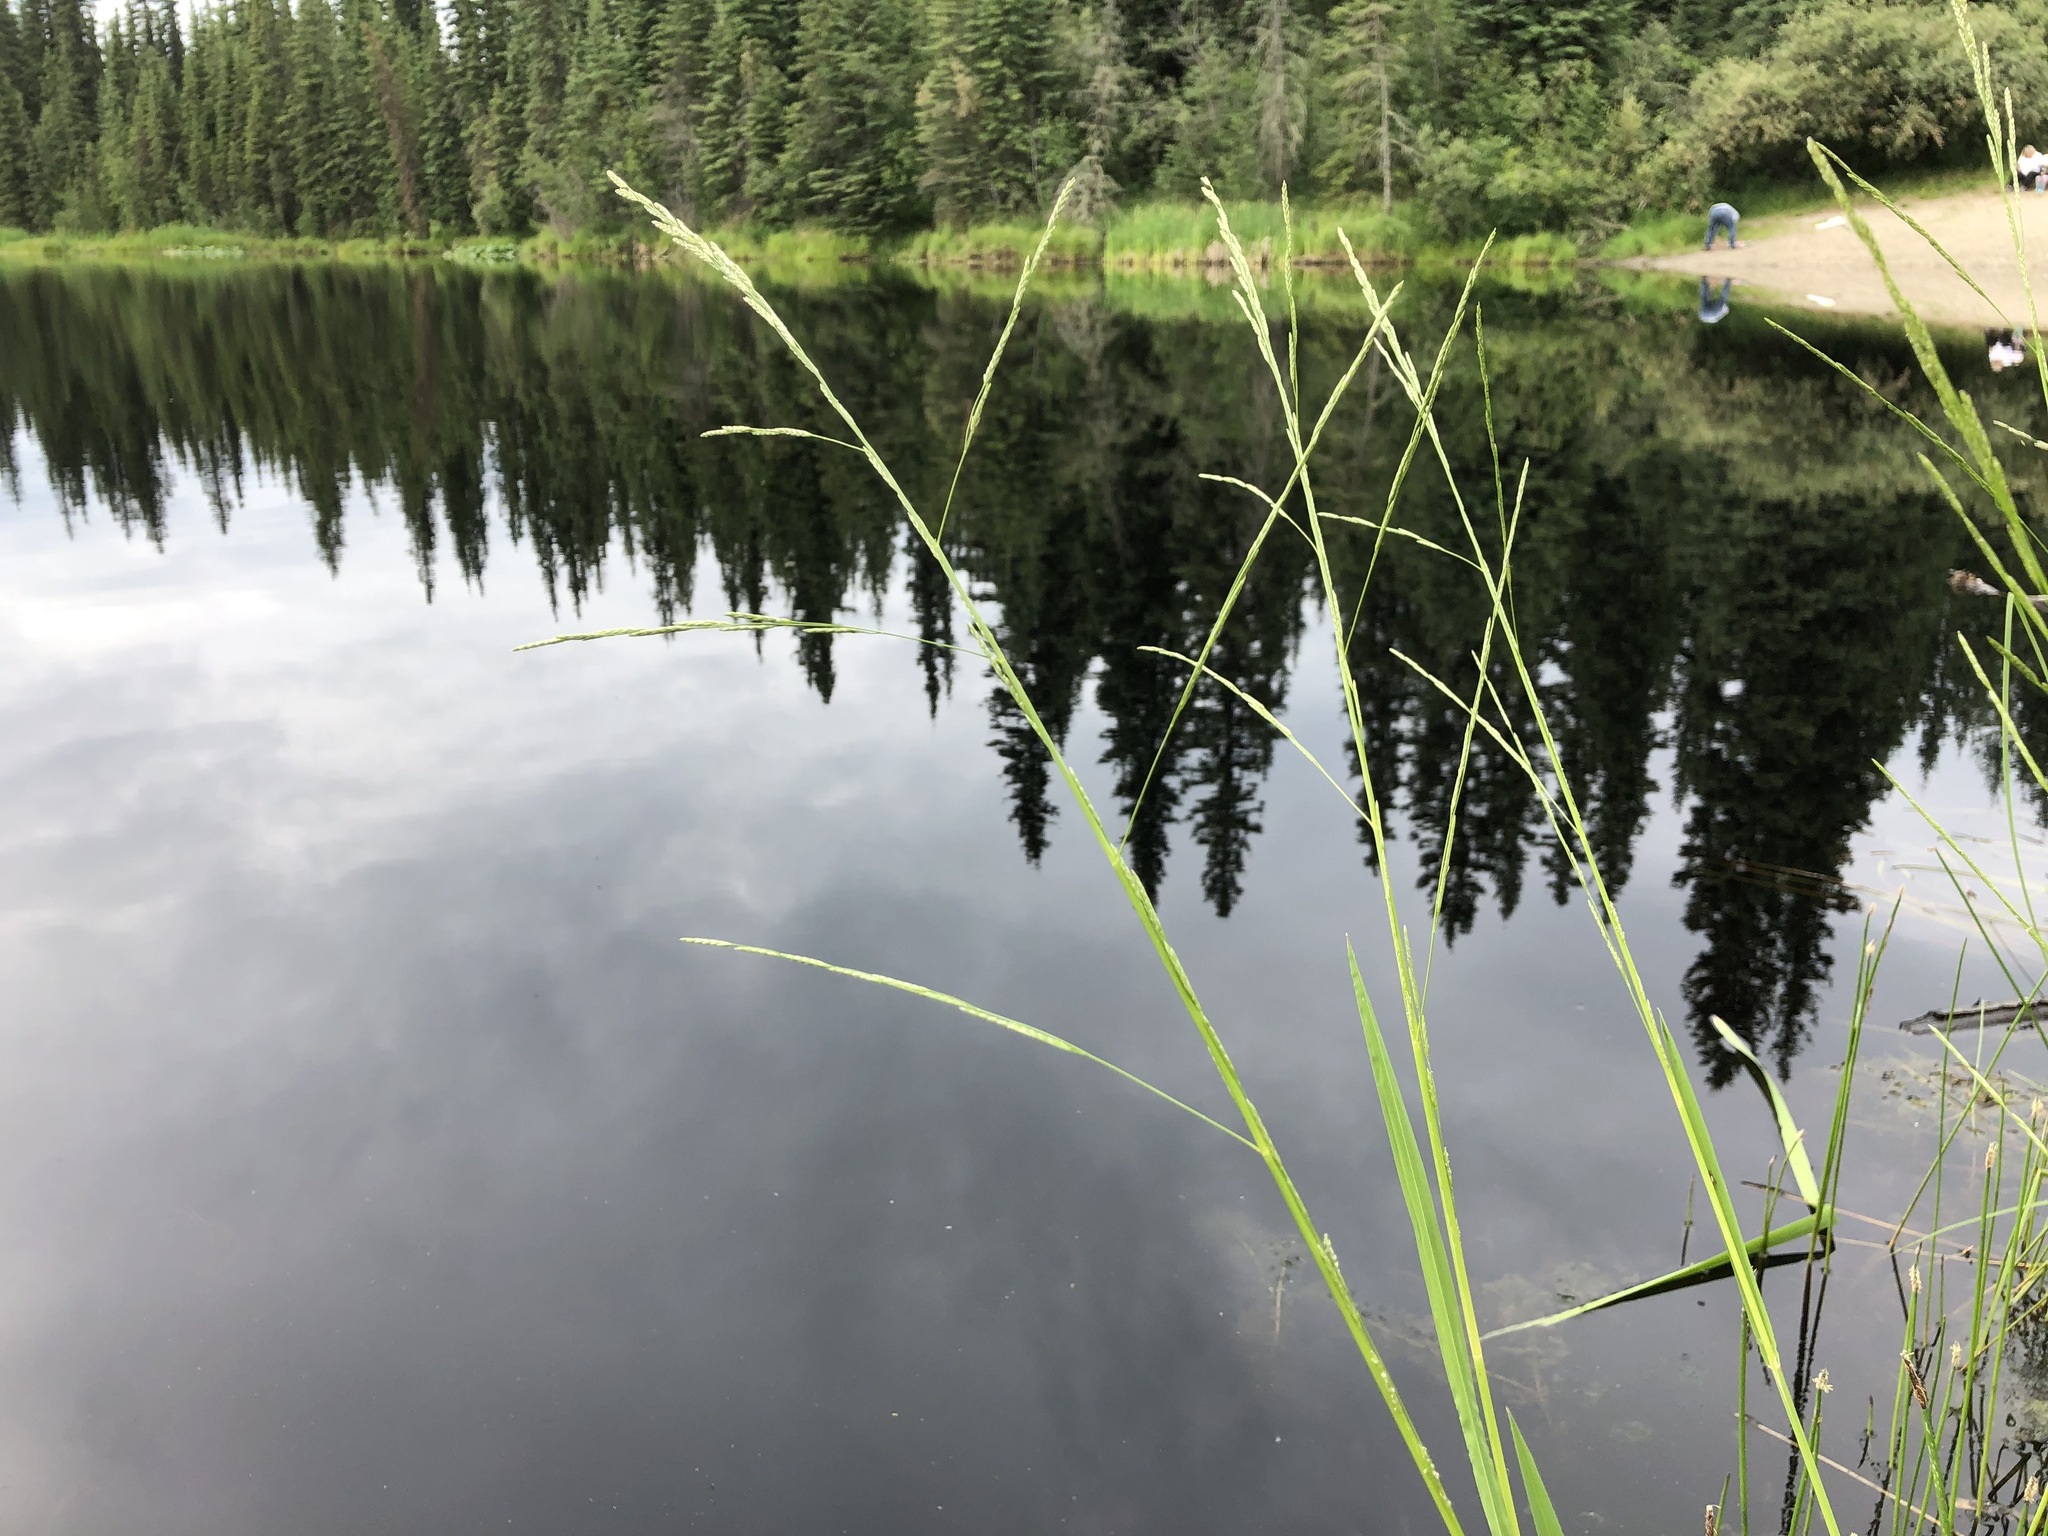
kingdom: Plantae
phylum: Tracheophyta
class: Liliopsida
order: Poales
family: Poaceae
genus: Glyceria
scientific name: Glyceria borealis
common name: Boreal glyceria
